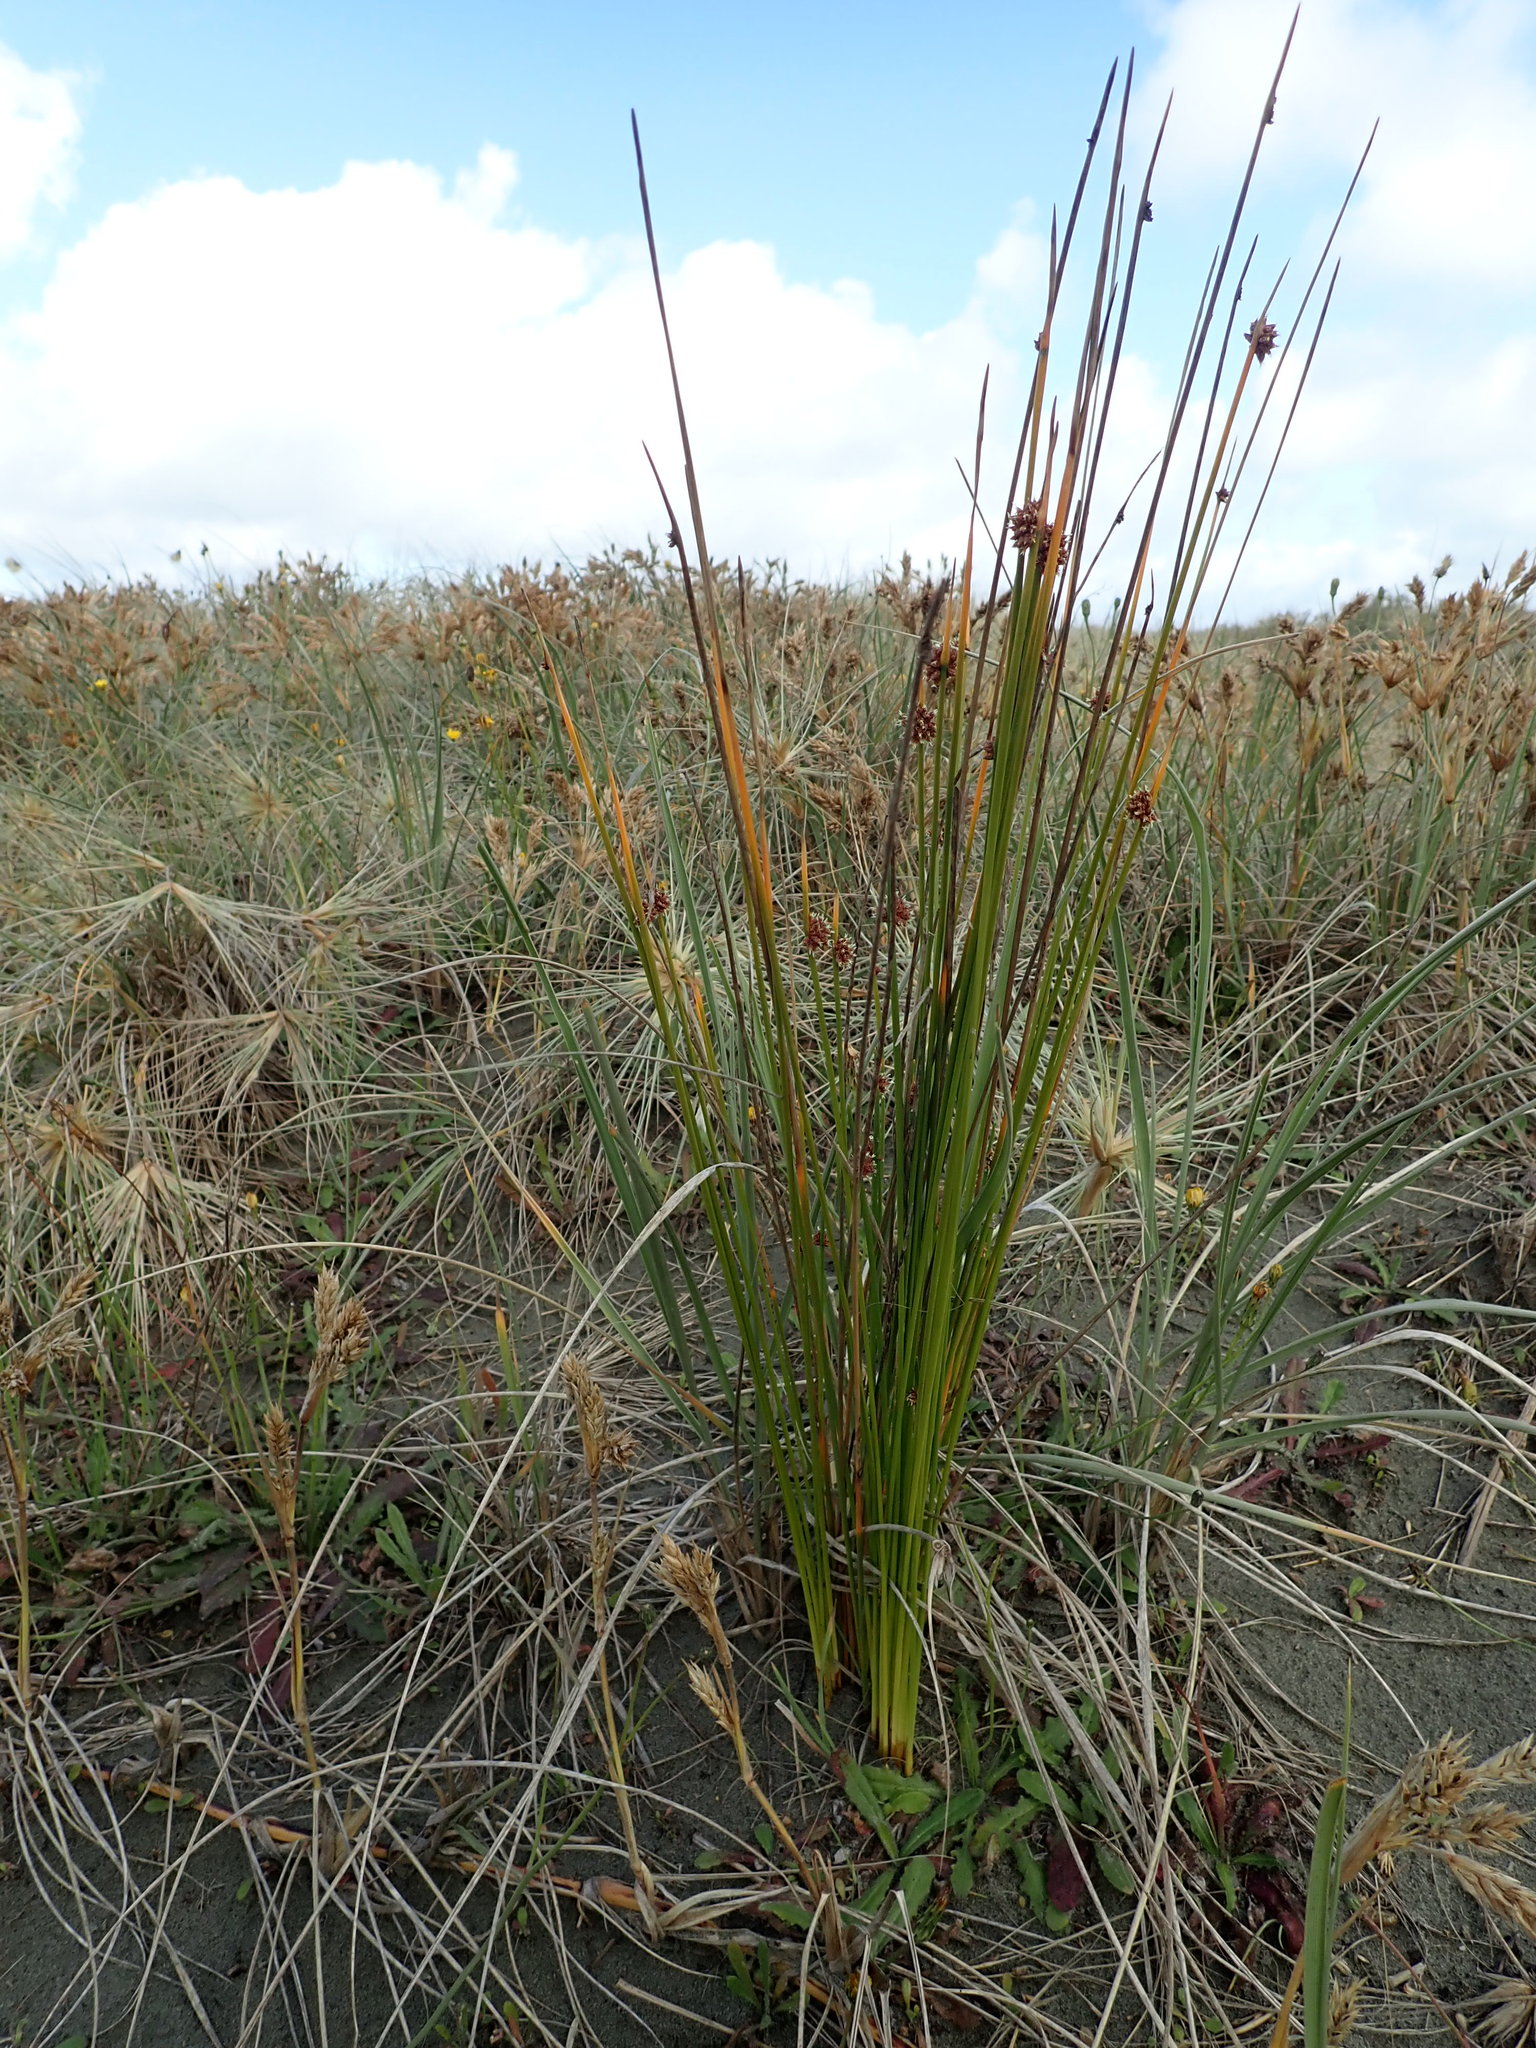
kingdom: Plantae
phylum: Tracheophyta
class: Liliopsida
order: Poales
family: Cyperaceae
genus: Ficinia
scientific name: Ficinia nodosa
